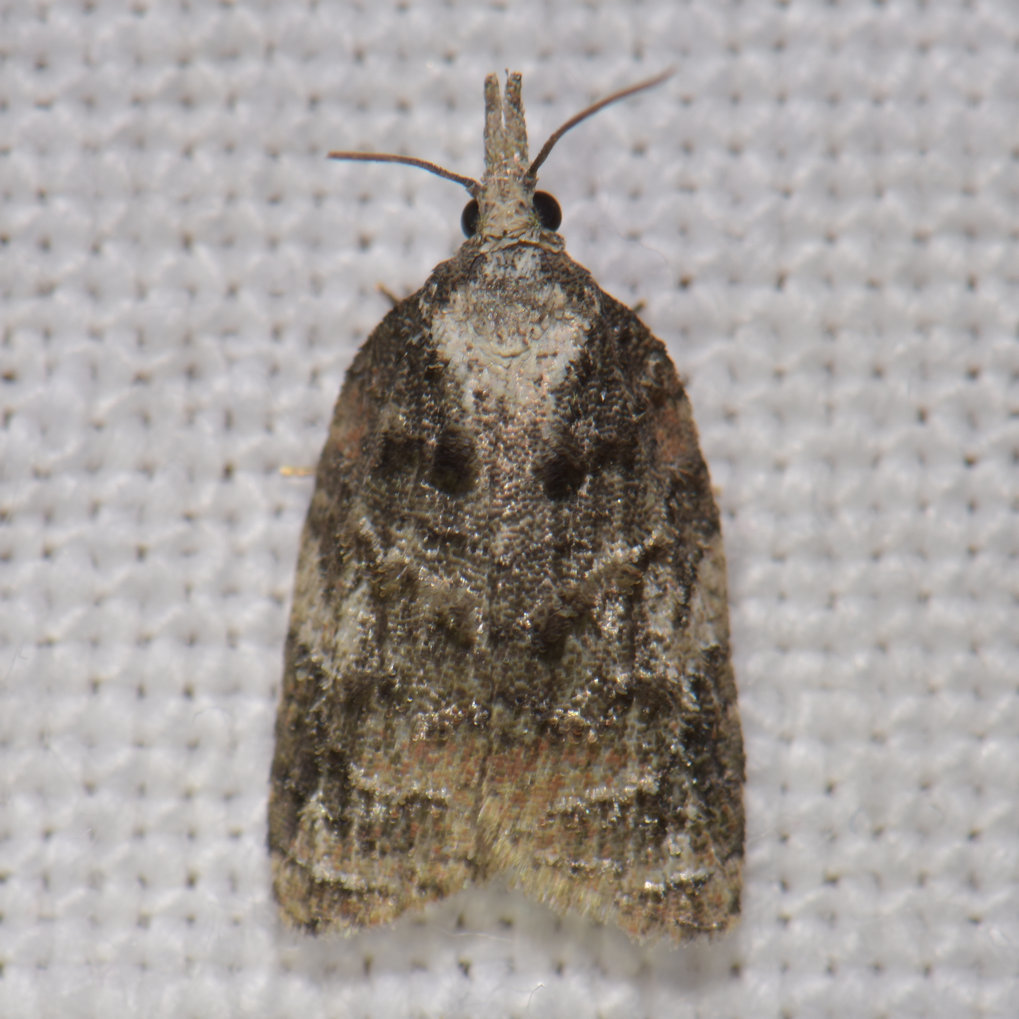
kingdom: Animalia
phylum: Arthropoda
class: Insecta
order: Lepidoptera
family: Tortricidae
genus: Platynota
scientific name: Platynota exasperatana
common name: Exasperating platynota moth
